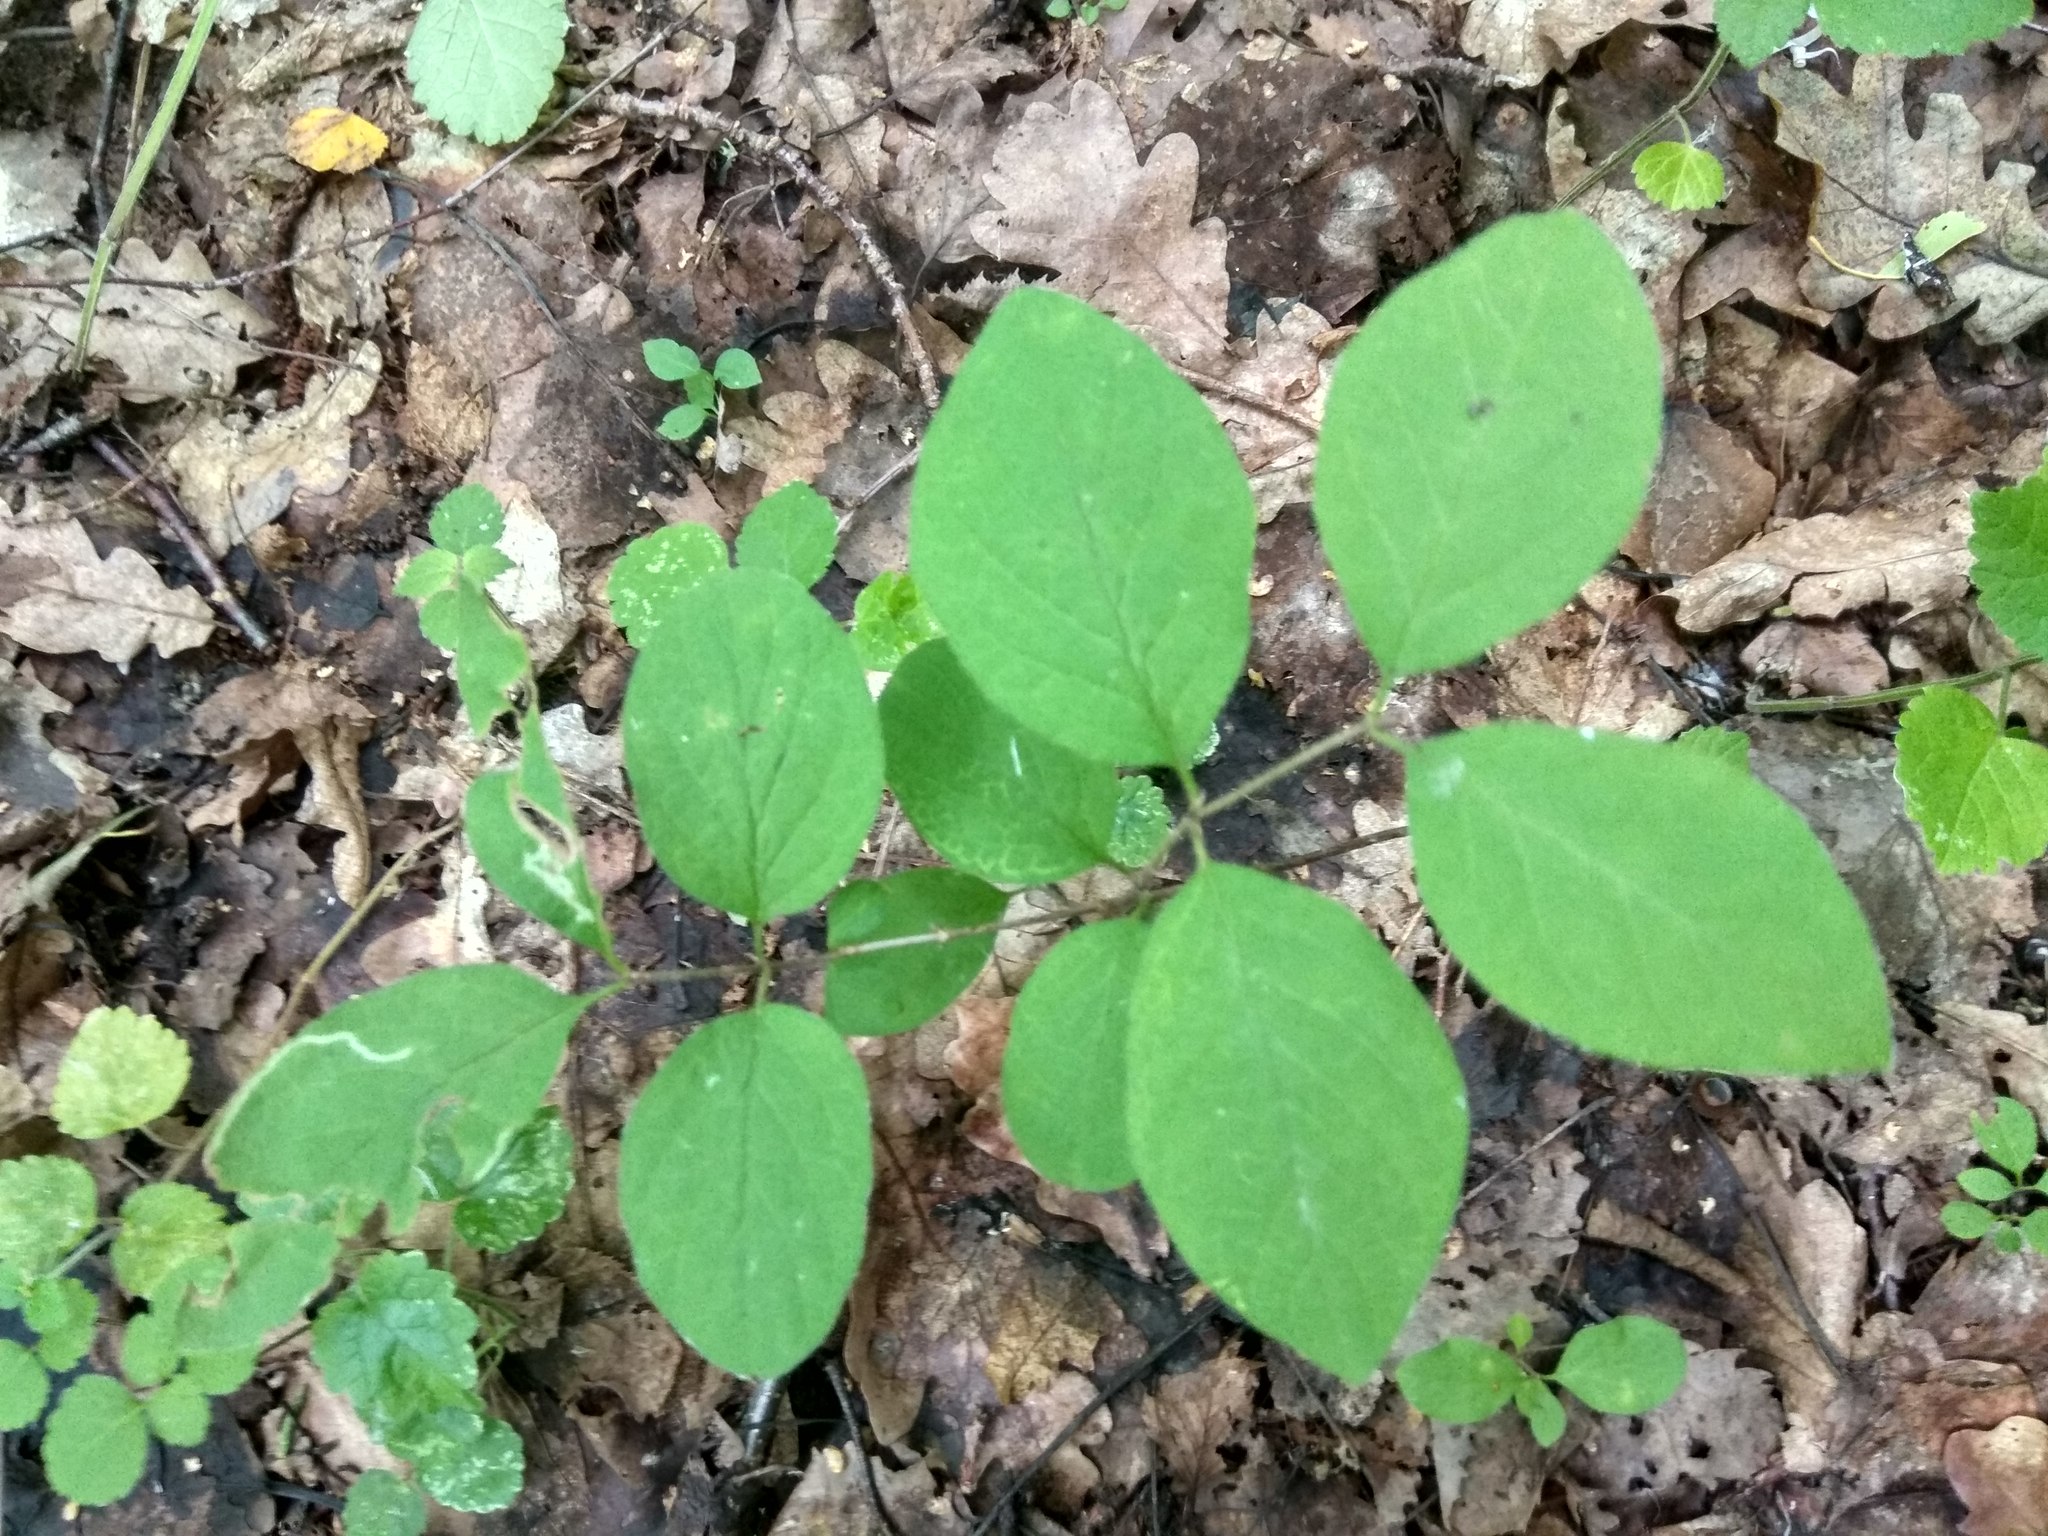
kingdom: Plantae
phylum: Tracheophyta
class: Magnoliopsida
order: Dipsacales
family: Caprifoliaceae
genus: Lonicera
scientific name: Lonicera xylosteum
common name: Fly honeysuckle
